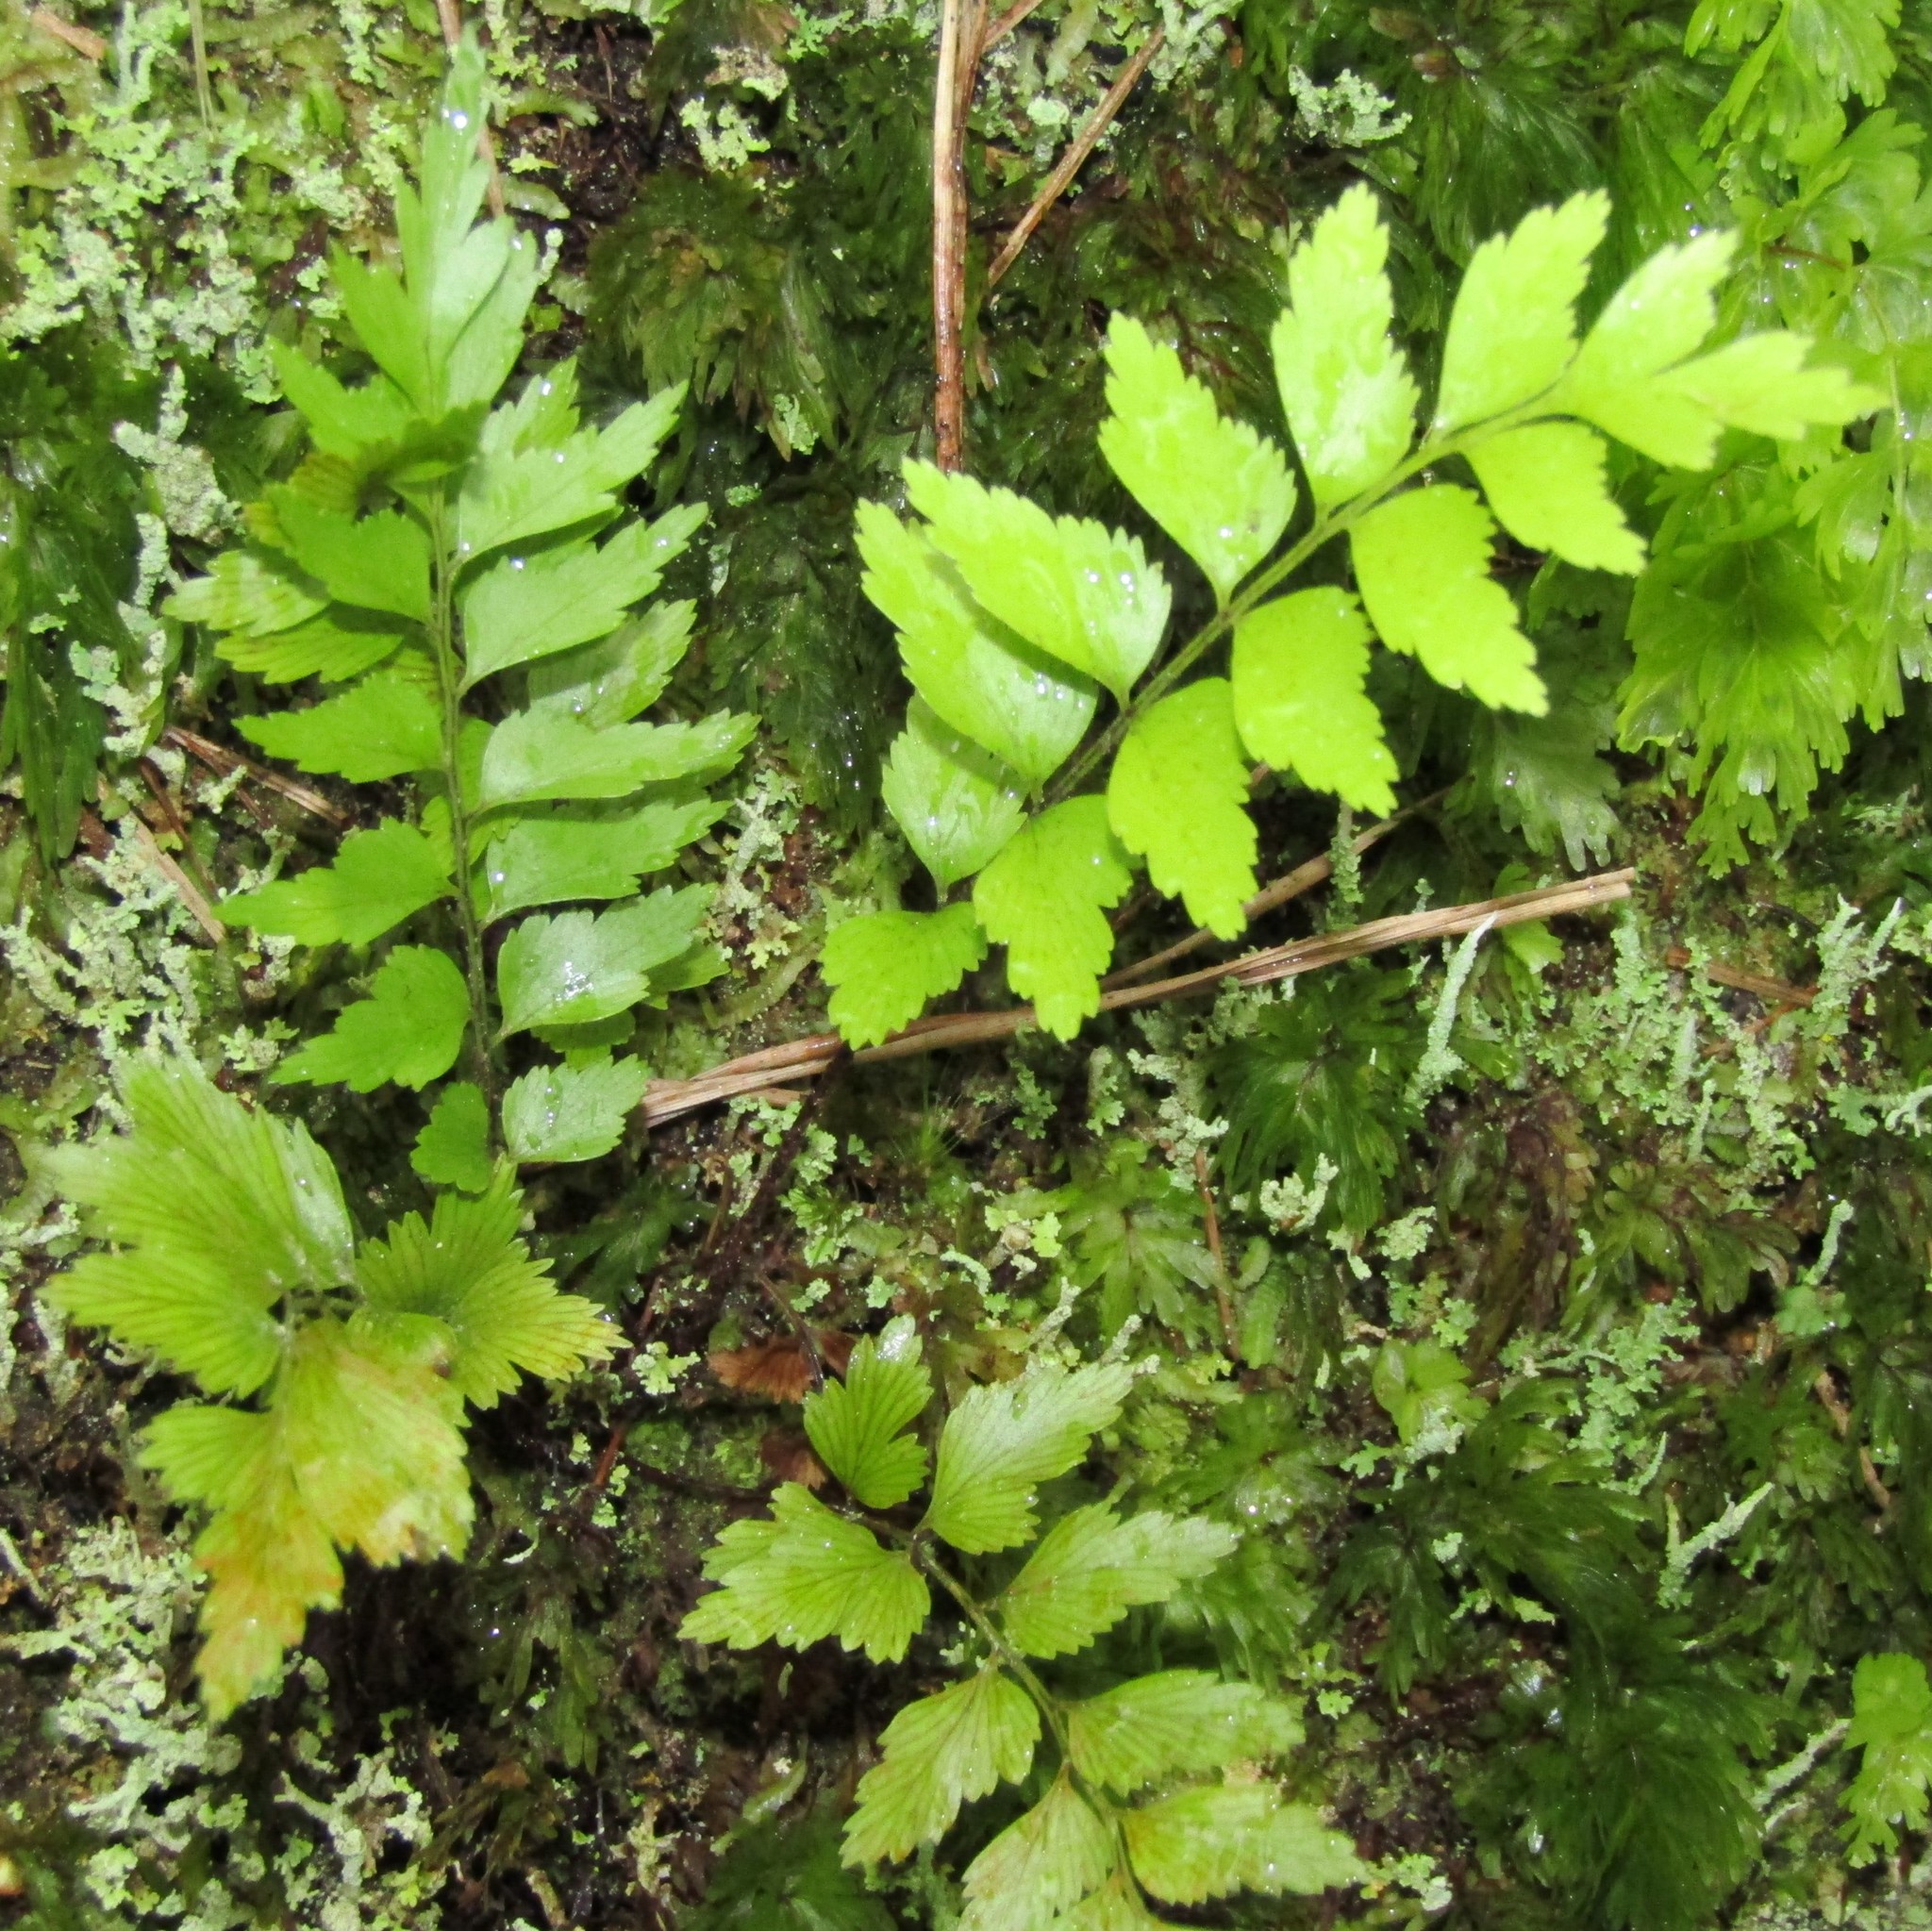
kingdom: Plantae
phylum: Tracheophyta
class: Polypodiopsida
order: Polypodiales
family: Aspleniaceae
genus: Asplenium
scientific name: Asplenium polyodon
